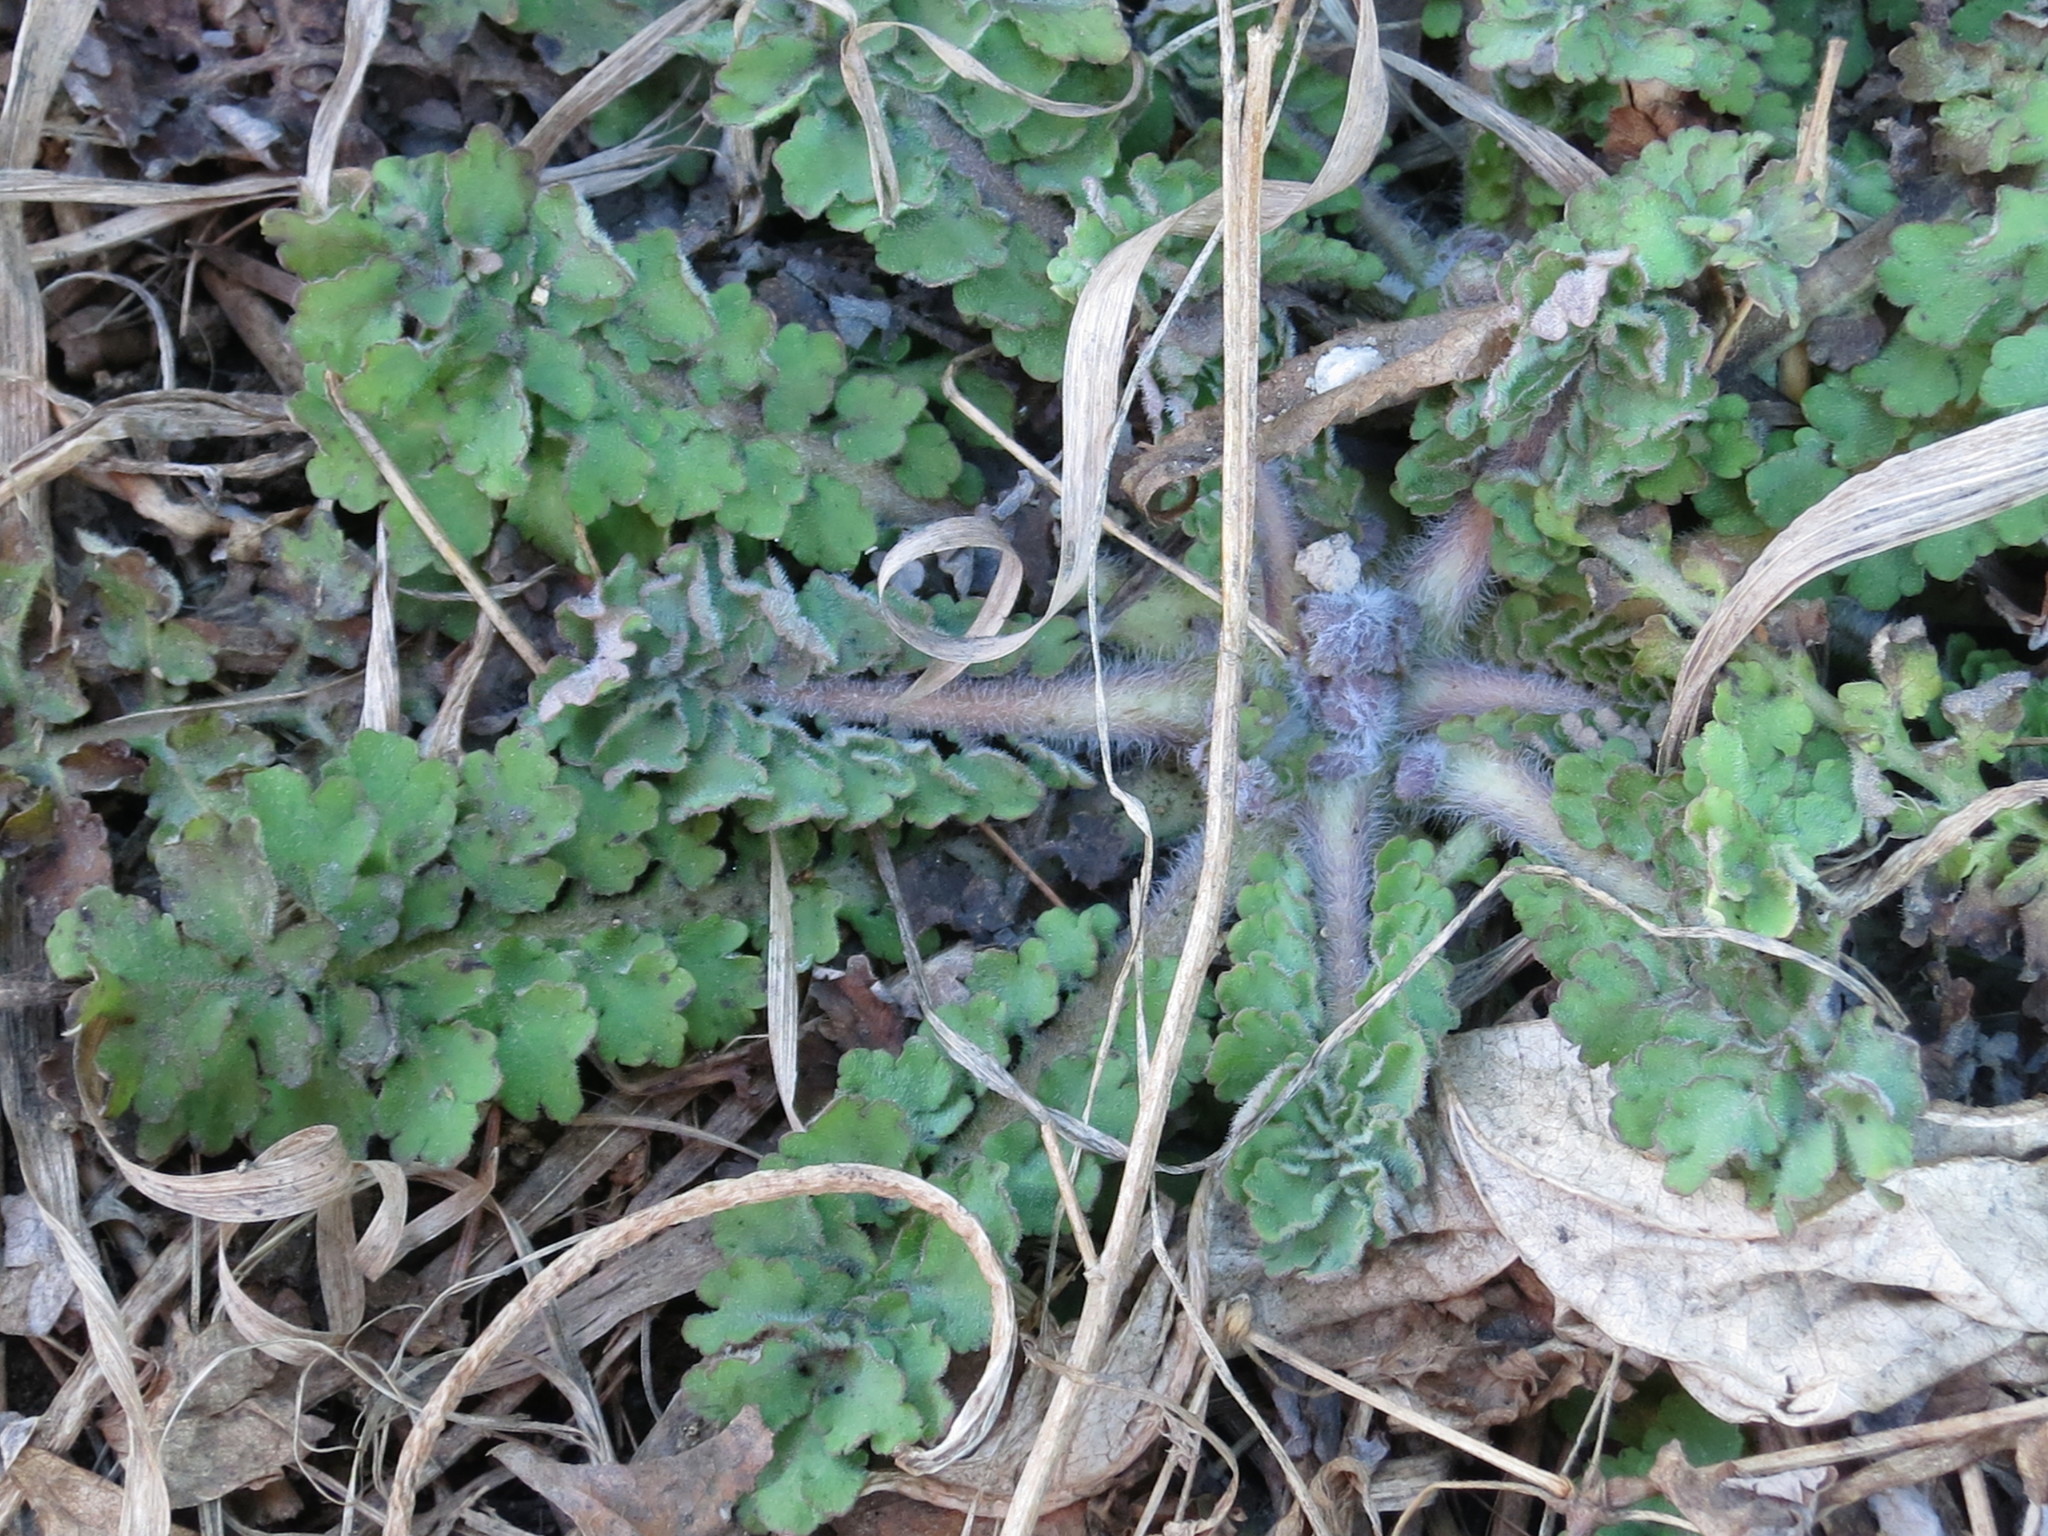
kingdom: Plantae
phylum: Tracheophyta
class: Magnoliopsida
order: Ranunculales
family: Papaveraceae
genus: Chelidonium
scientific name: Chelidonium majus
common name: Greater celandine
